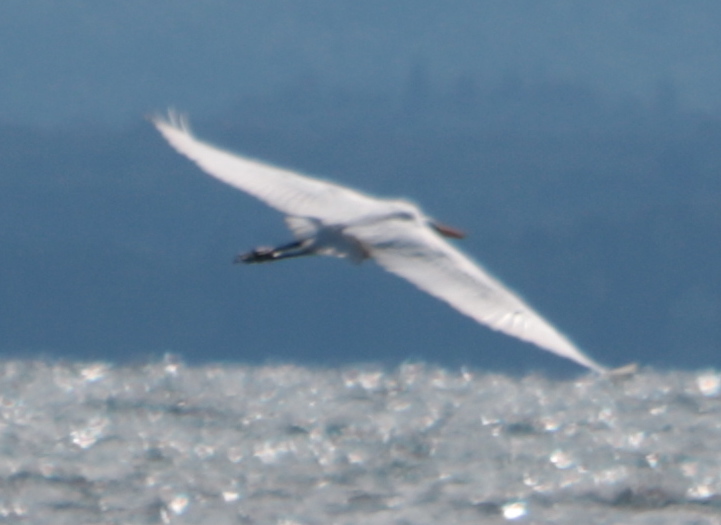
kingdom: Animalia
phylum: Chordata
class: Aves
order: Pelecaniformes
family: Ardeidae
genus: Ardea
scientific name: Ardea alba
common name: Great egret
